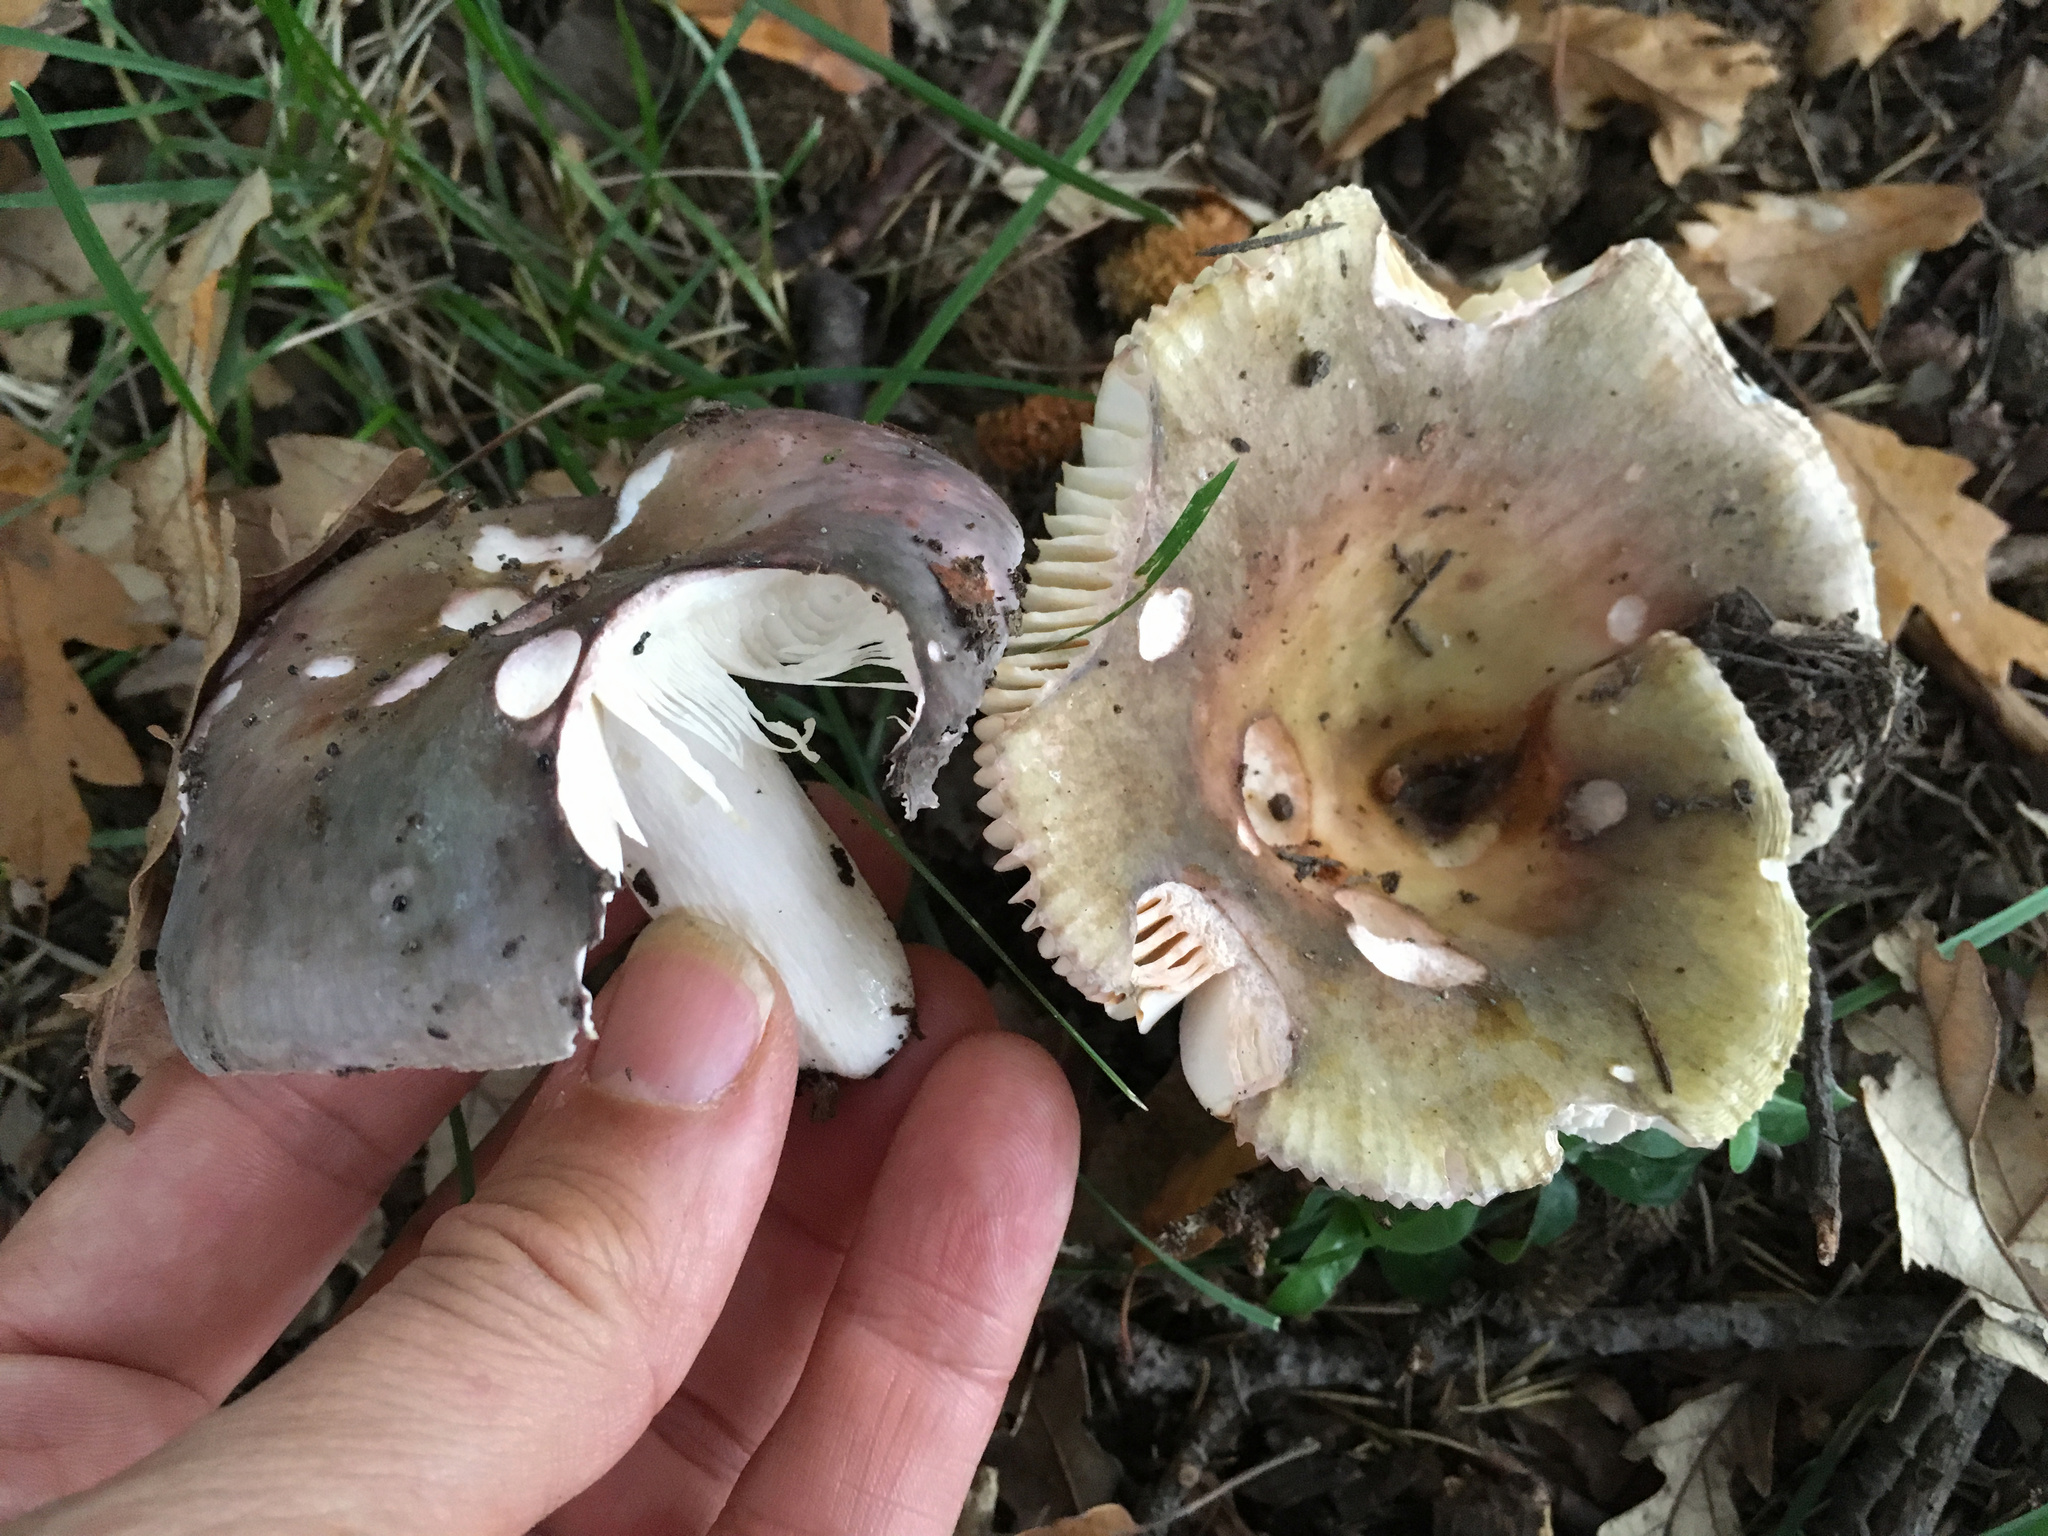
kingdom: Fungi
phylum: Basidiomycota
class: Agaricomycetes
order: Russulales
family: Russulaceae
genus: Russula
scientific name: Russula grisea
